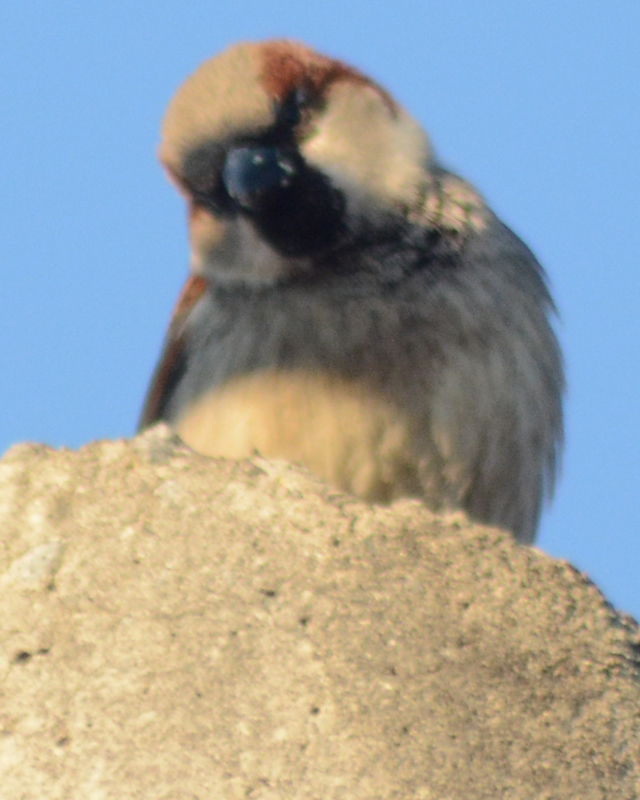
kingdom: Animalia
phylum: Chordata
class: Aves
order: Passeriformes
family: Passeridae
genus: Passer
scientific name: Passer domesticus
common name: House sparrow
